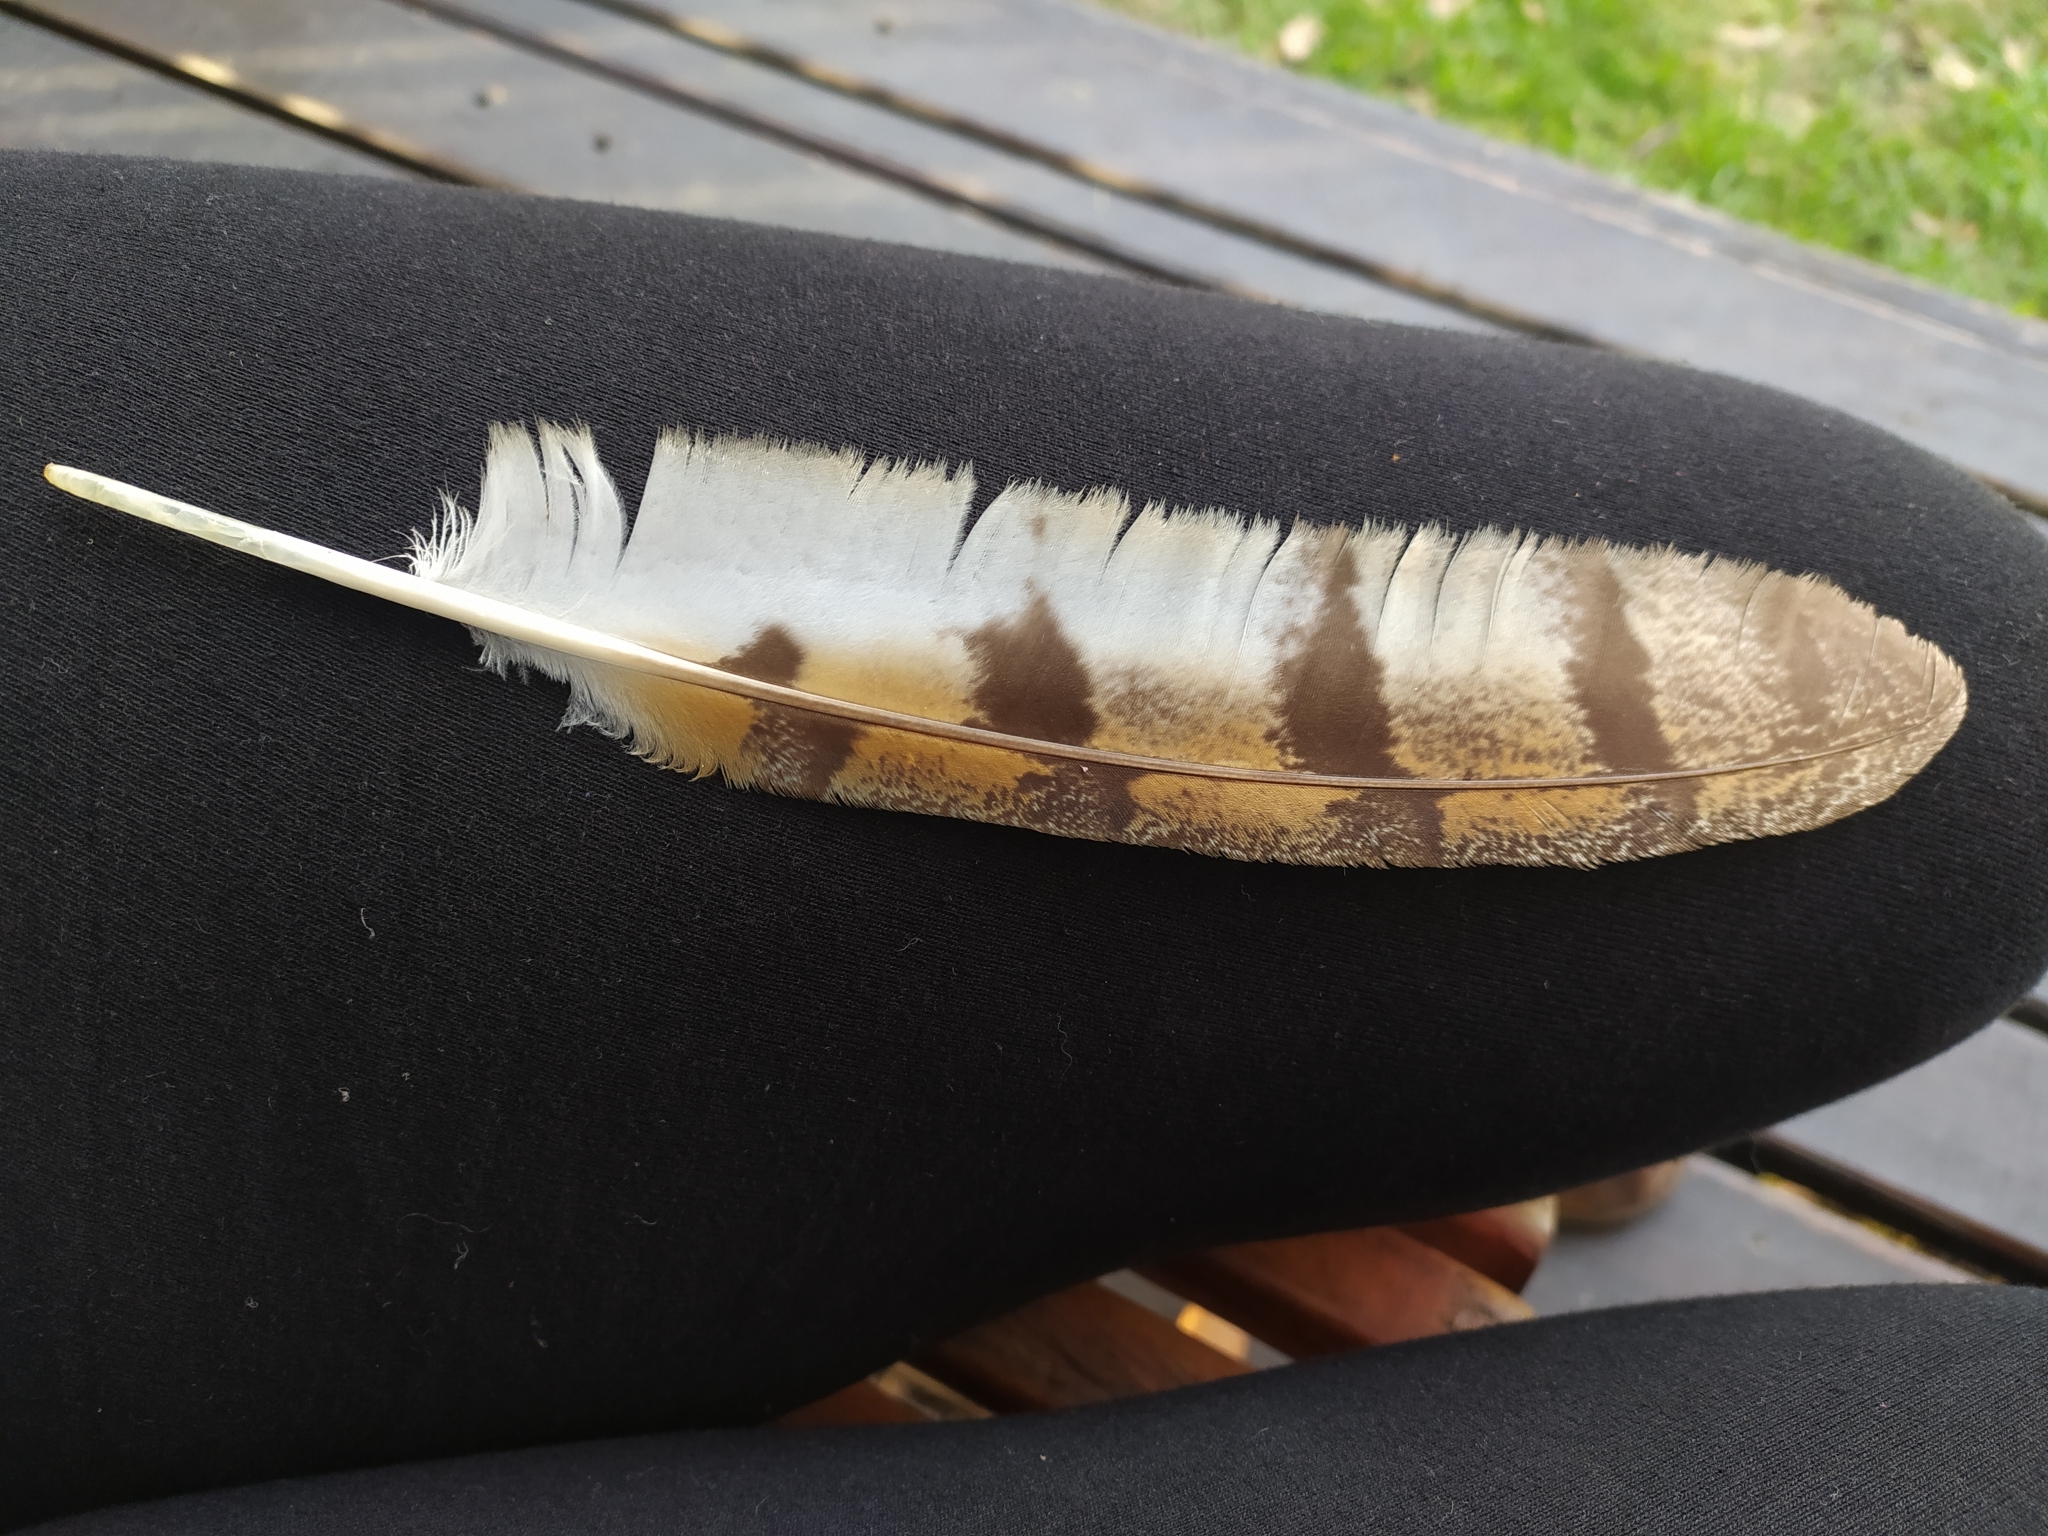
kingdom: Animalia
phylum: Chordata
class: Aves
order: Strigiformes
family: Tytonidae
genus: Tyto
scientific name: Tyto alba
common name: Barn owl
